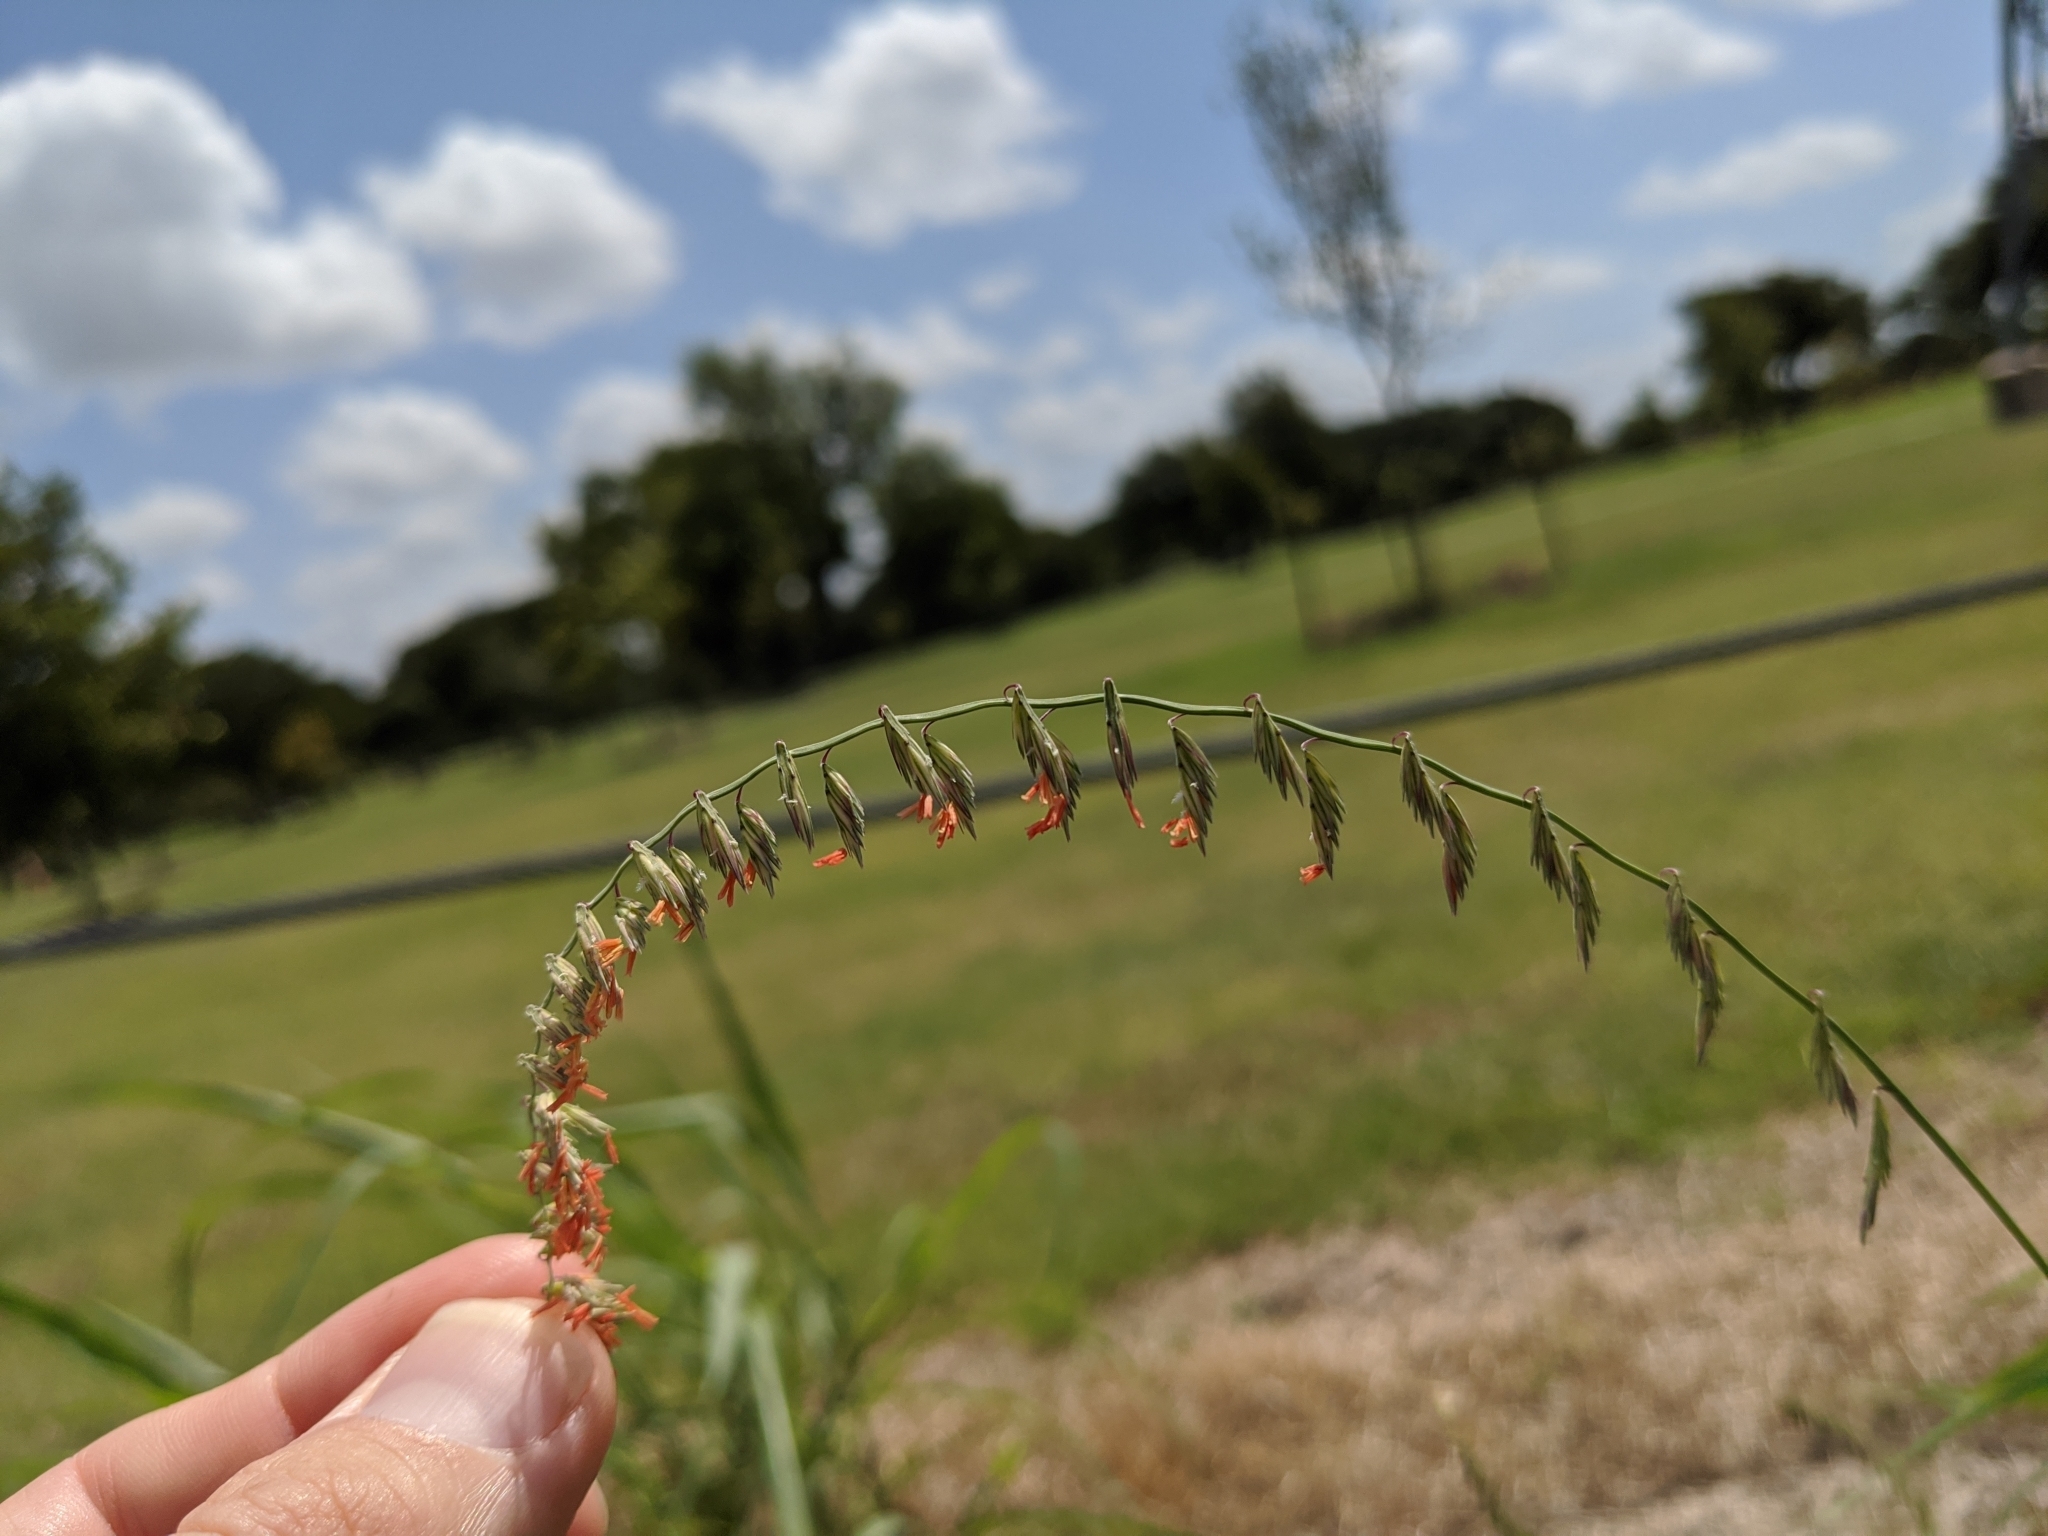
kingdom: Plantae
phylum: Tracheophyta
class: Liliopsida
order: Poales
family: Poaceae
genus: Bouteloua
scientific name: Bouteloua curtipendula
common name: Side-oats grama
